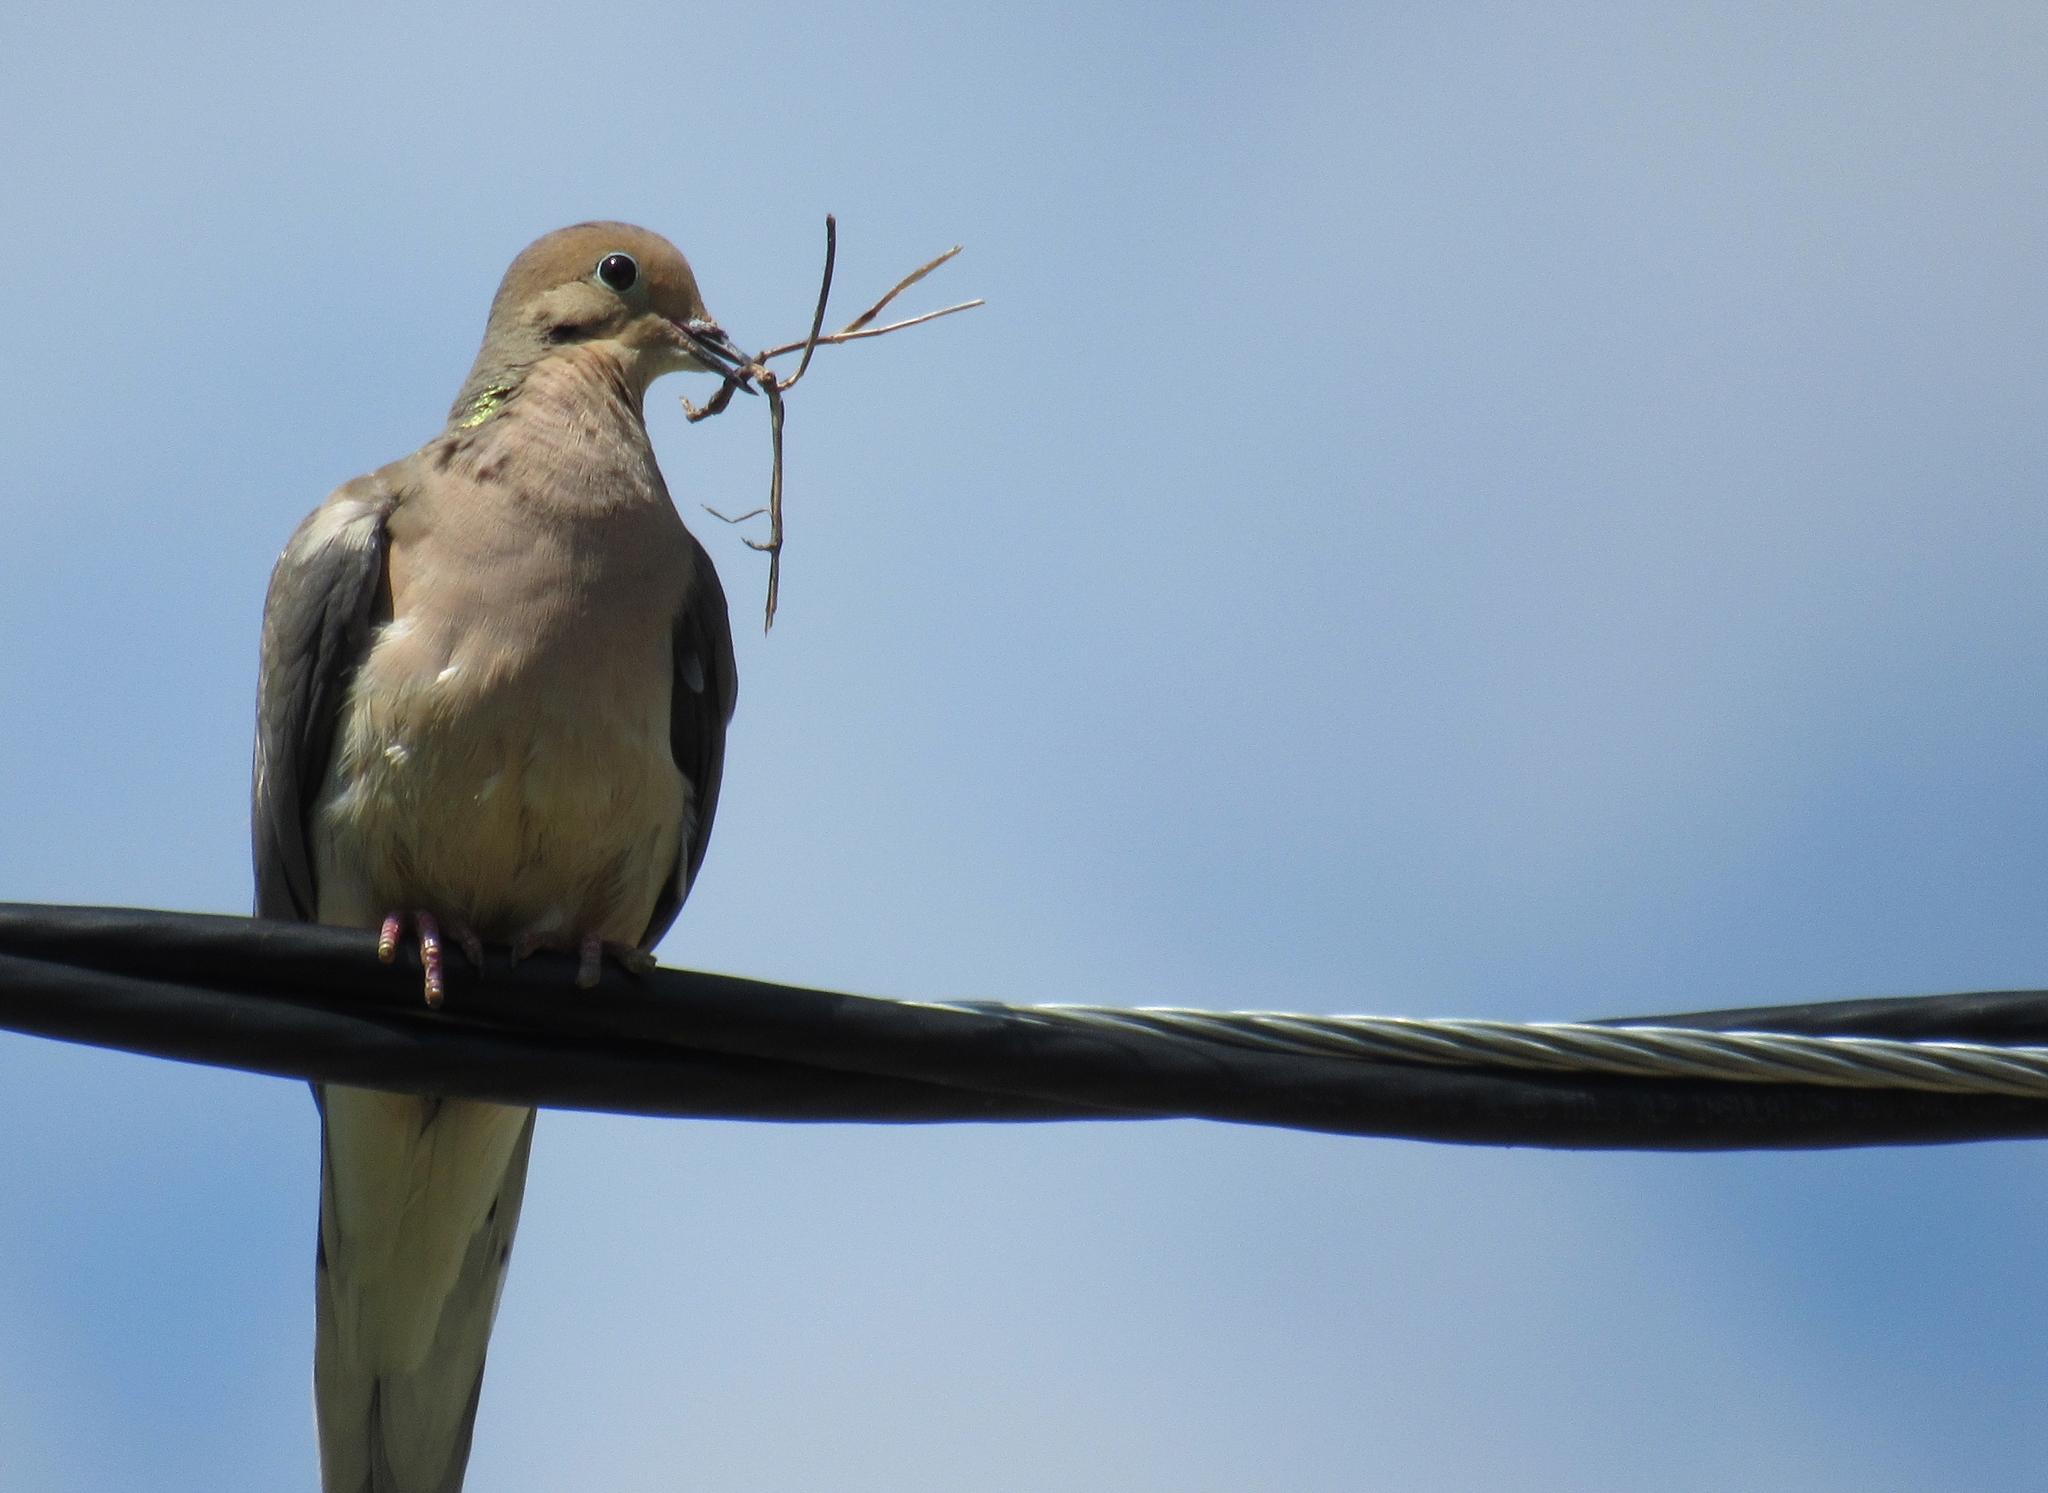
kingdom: Animalia
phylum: Chordata
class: Aves
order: Columbiformes
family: Columbidae
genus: Zenaida
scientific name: Zenaida macroura
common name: Mourning dove
